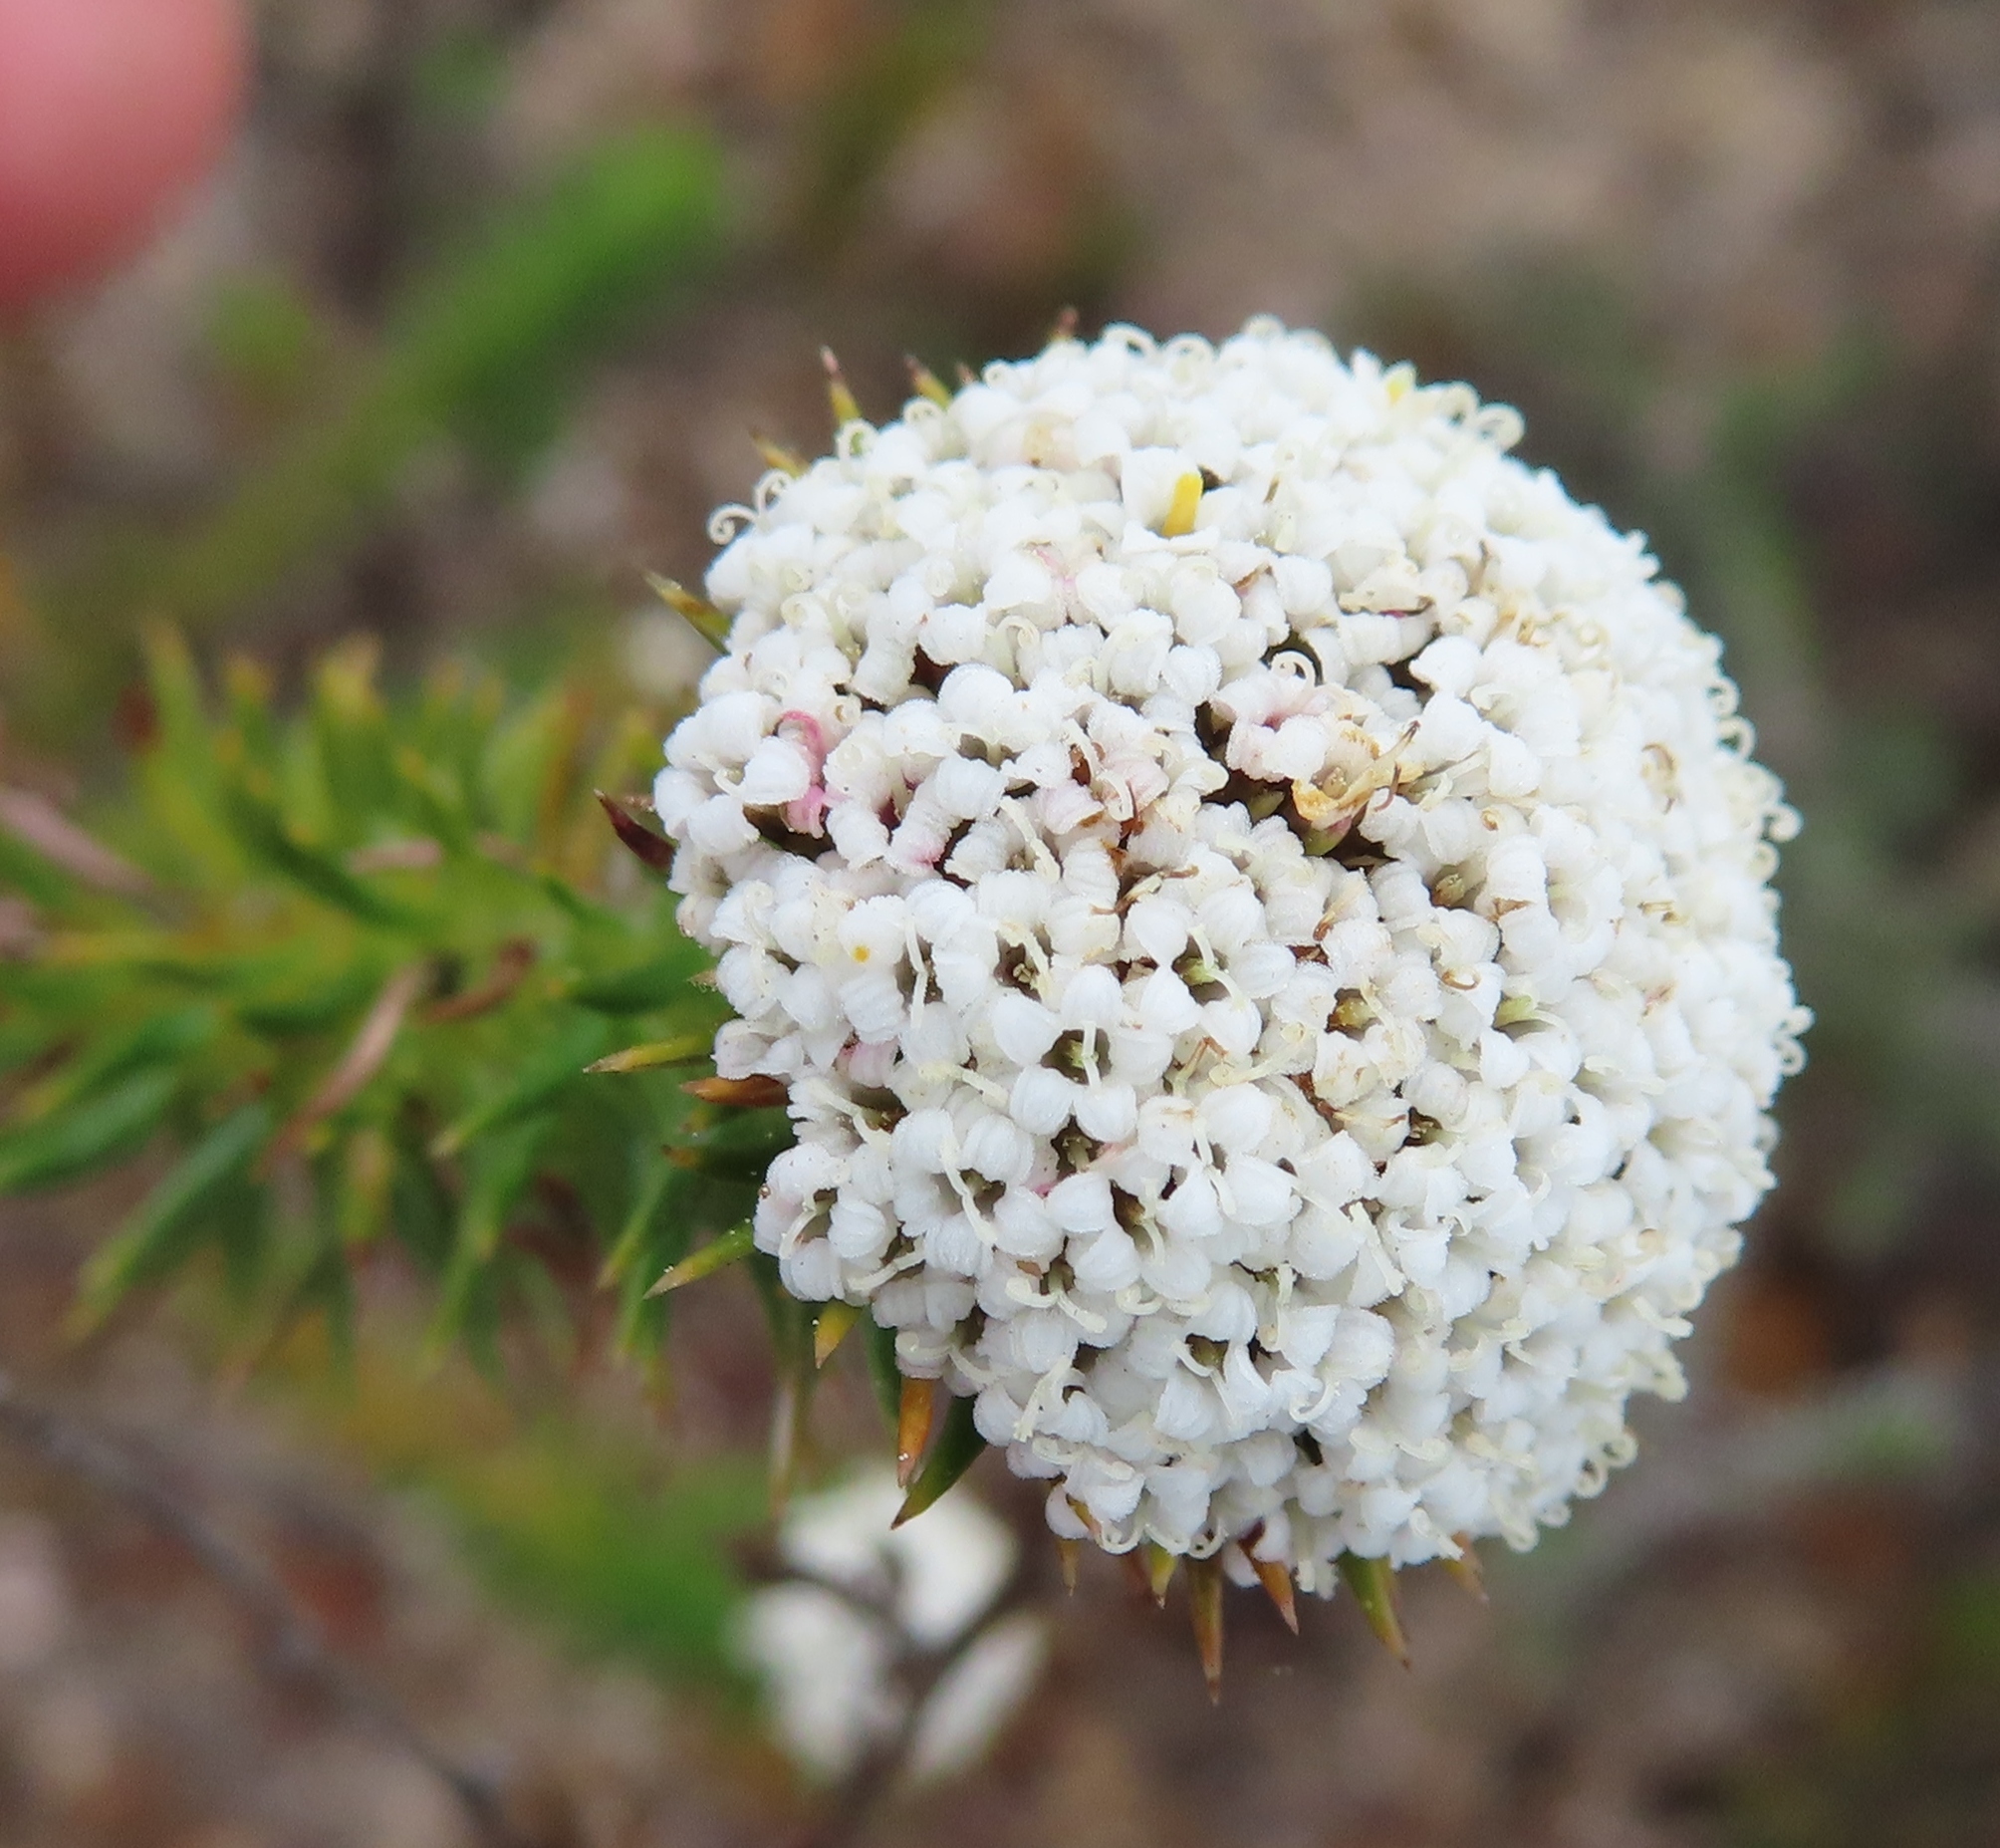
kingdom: Plantae
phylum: Tracheophyta
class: Magnoliopsida
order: Asterales
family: Asteraceae
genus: Stoebe
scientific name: Stoebe aethiopica
